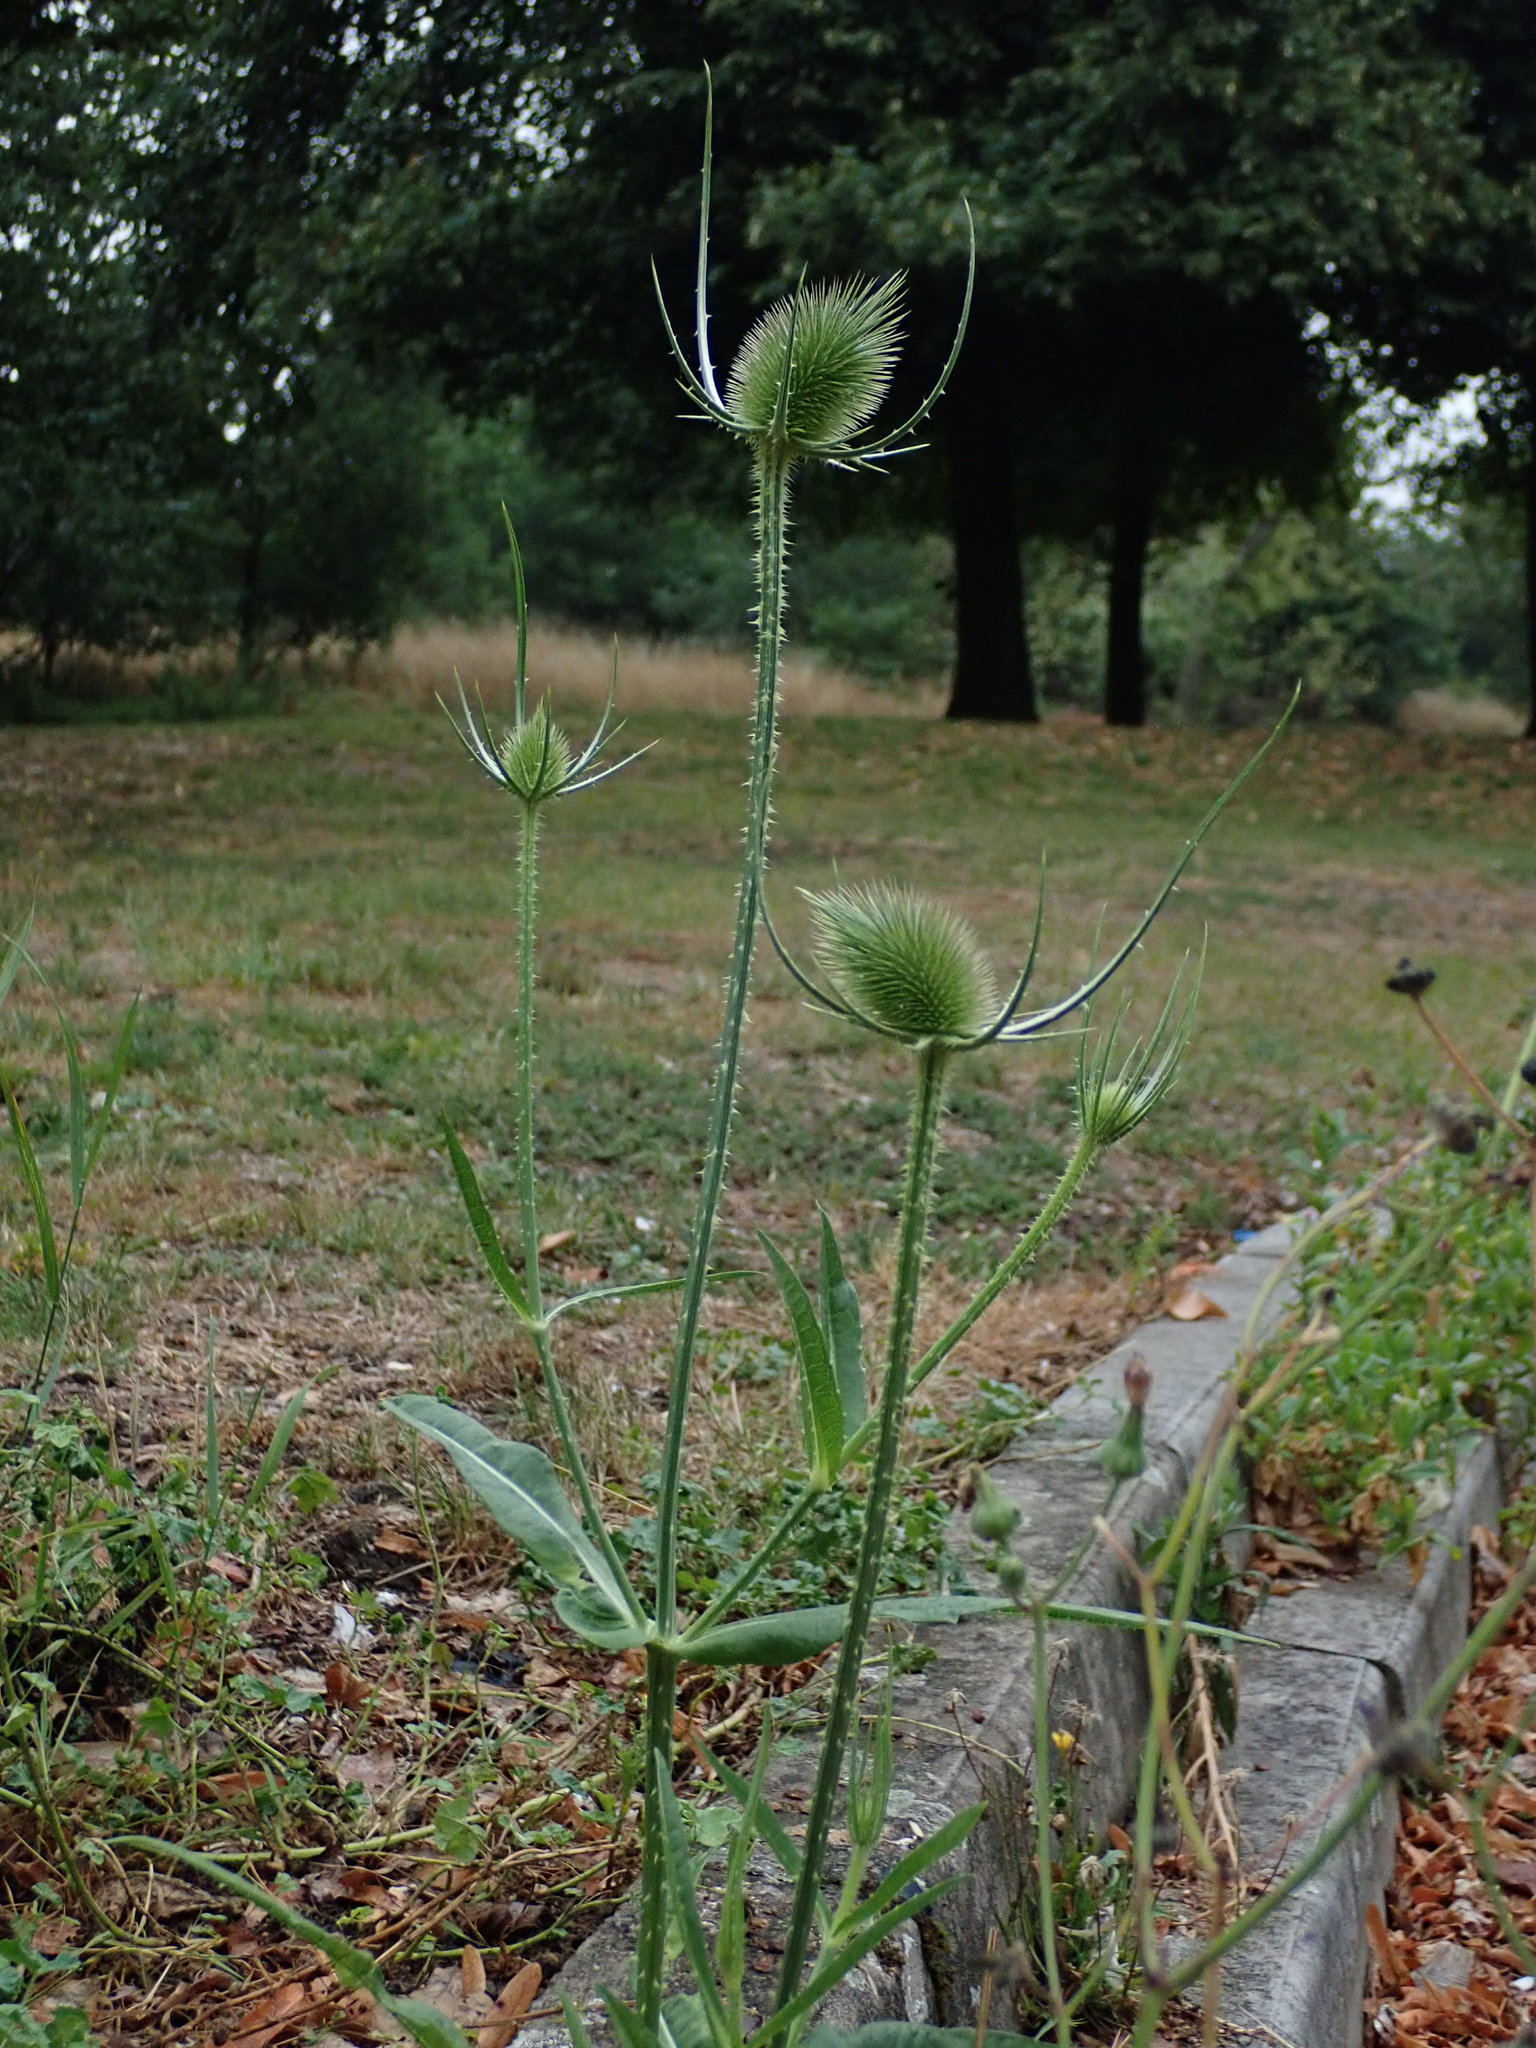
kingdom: Plantae
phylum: Tracheophyta
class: Magnoliopsida
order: Dipsacales
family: Caprifoliaceae
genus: Dipsacus
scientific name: Dipsacus fullonum
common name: Teasel
